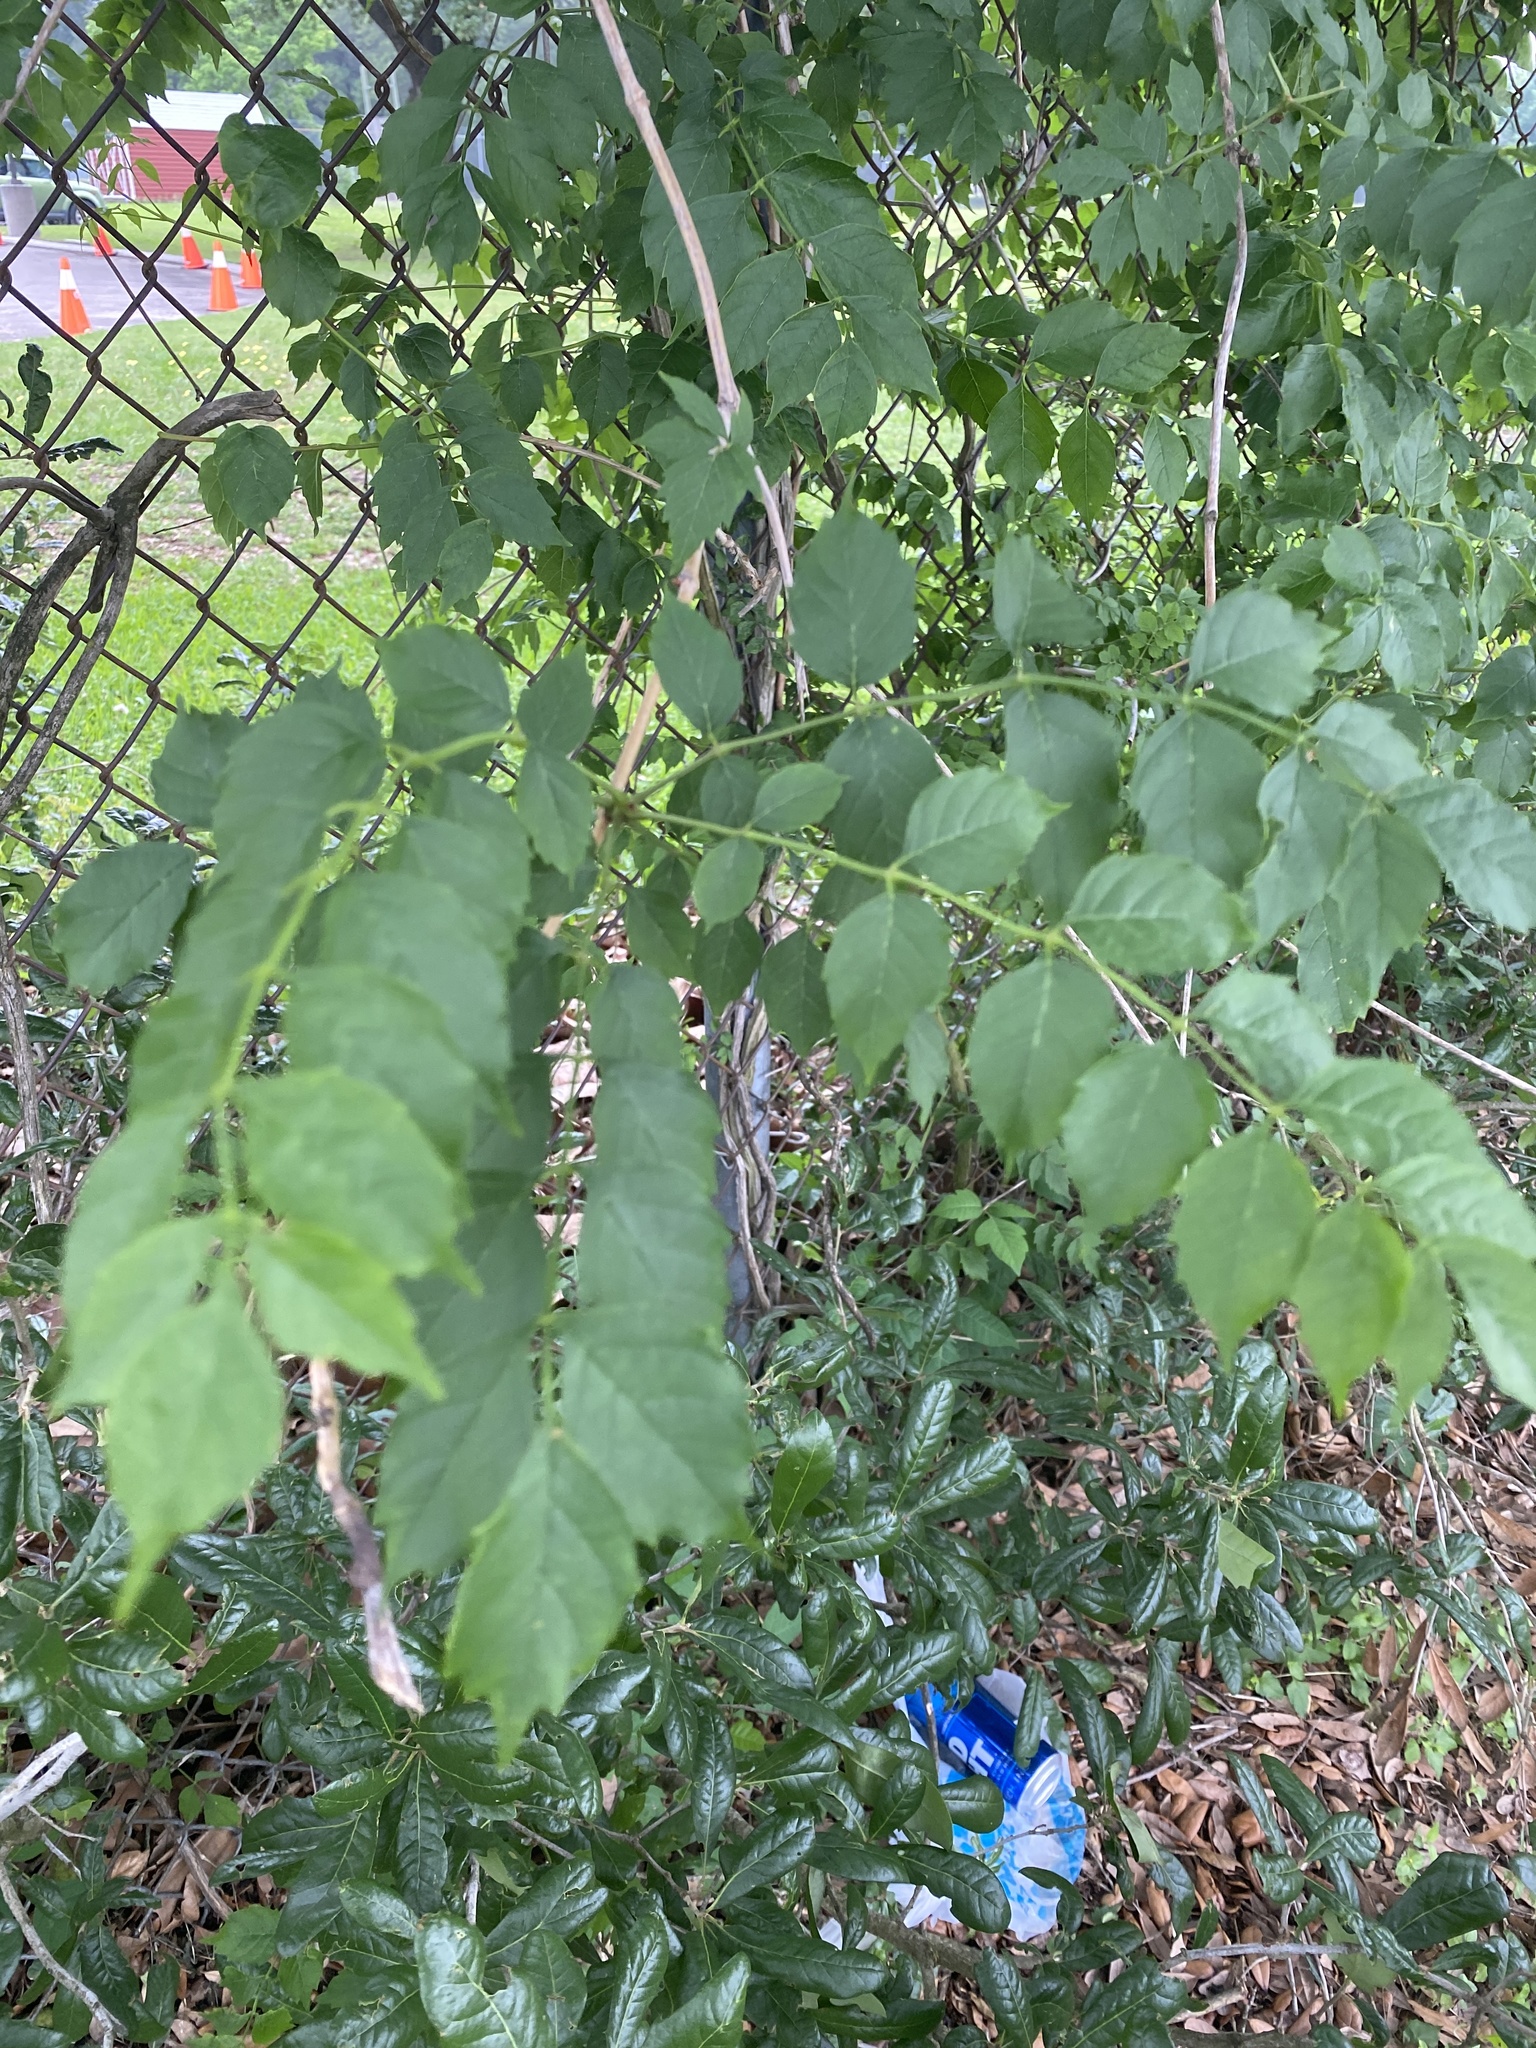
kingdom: Plantae
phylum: Tracheophyta
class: Magnoliopsida
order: Lamiales
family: Bignoniaceae
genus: Campsis
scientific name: Campsis radicans
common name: Trumpet-creeper
